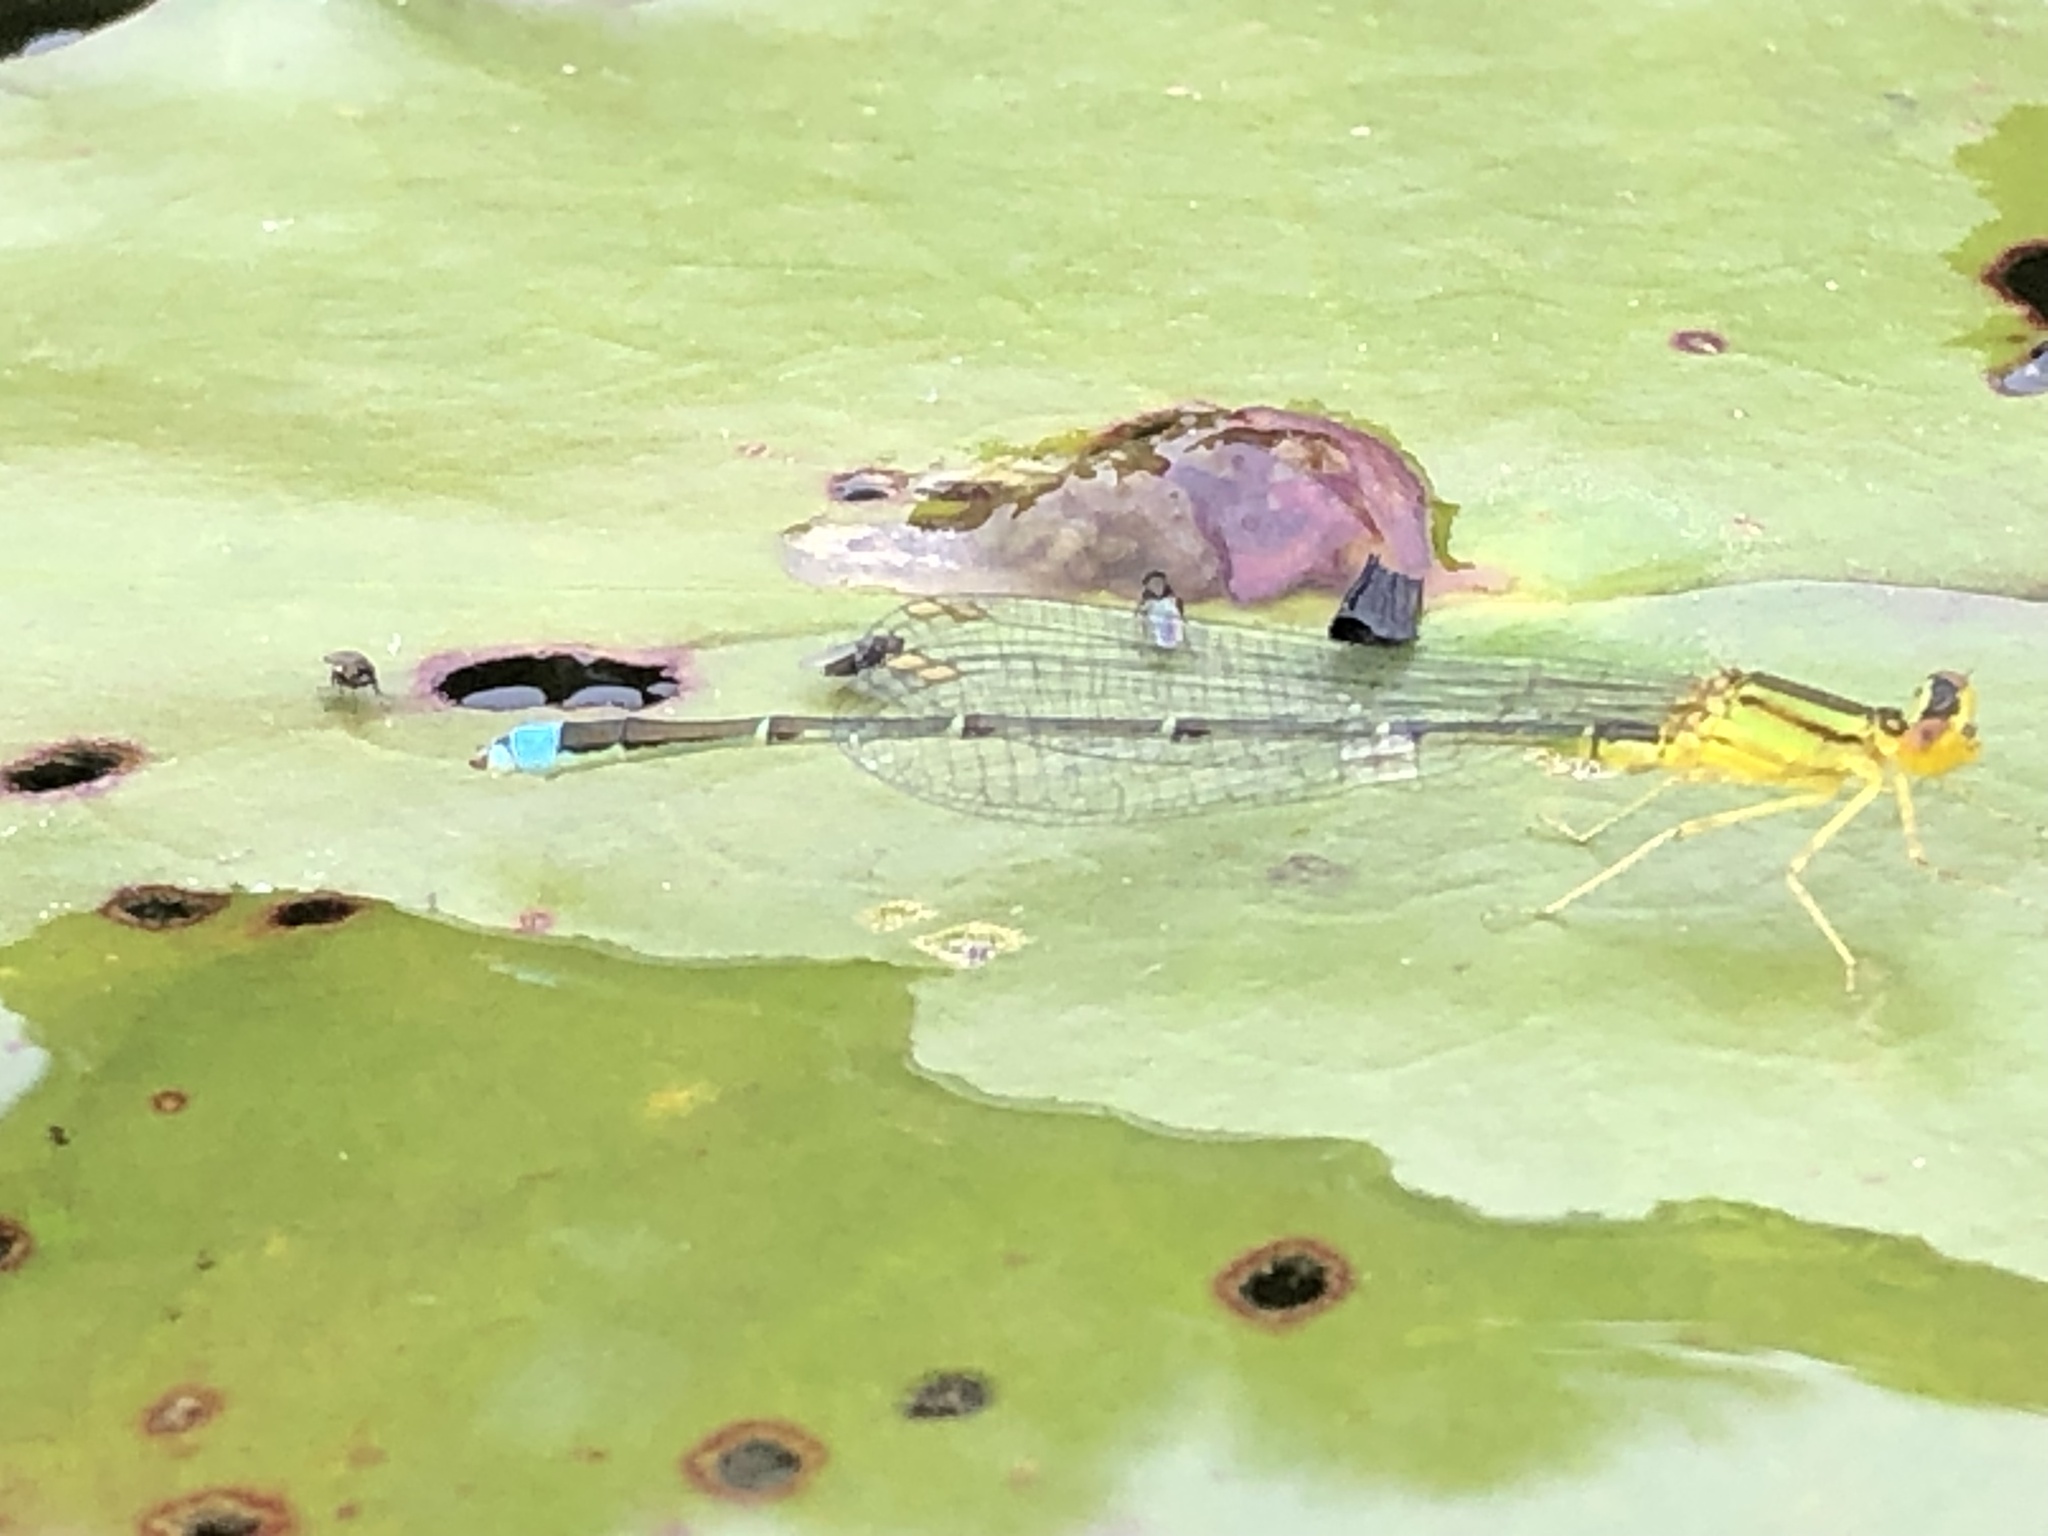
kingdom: Animalia
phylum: Arthropoda
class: Insecta
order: Odonata
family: Coenagrionidae
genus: Enallagma
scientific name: Enallagma vesperum
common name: Vesper bluet
